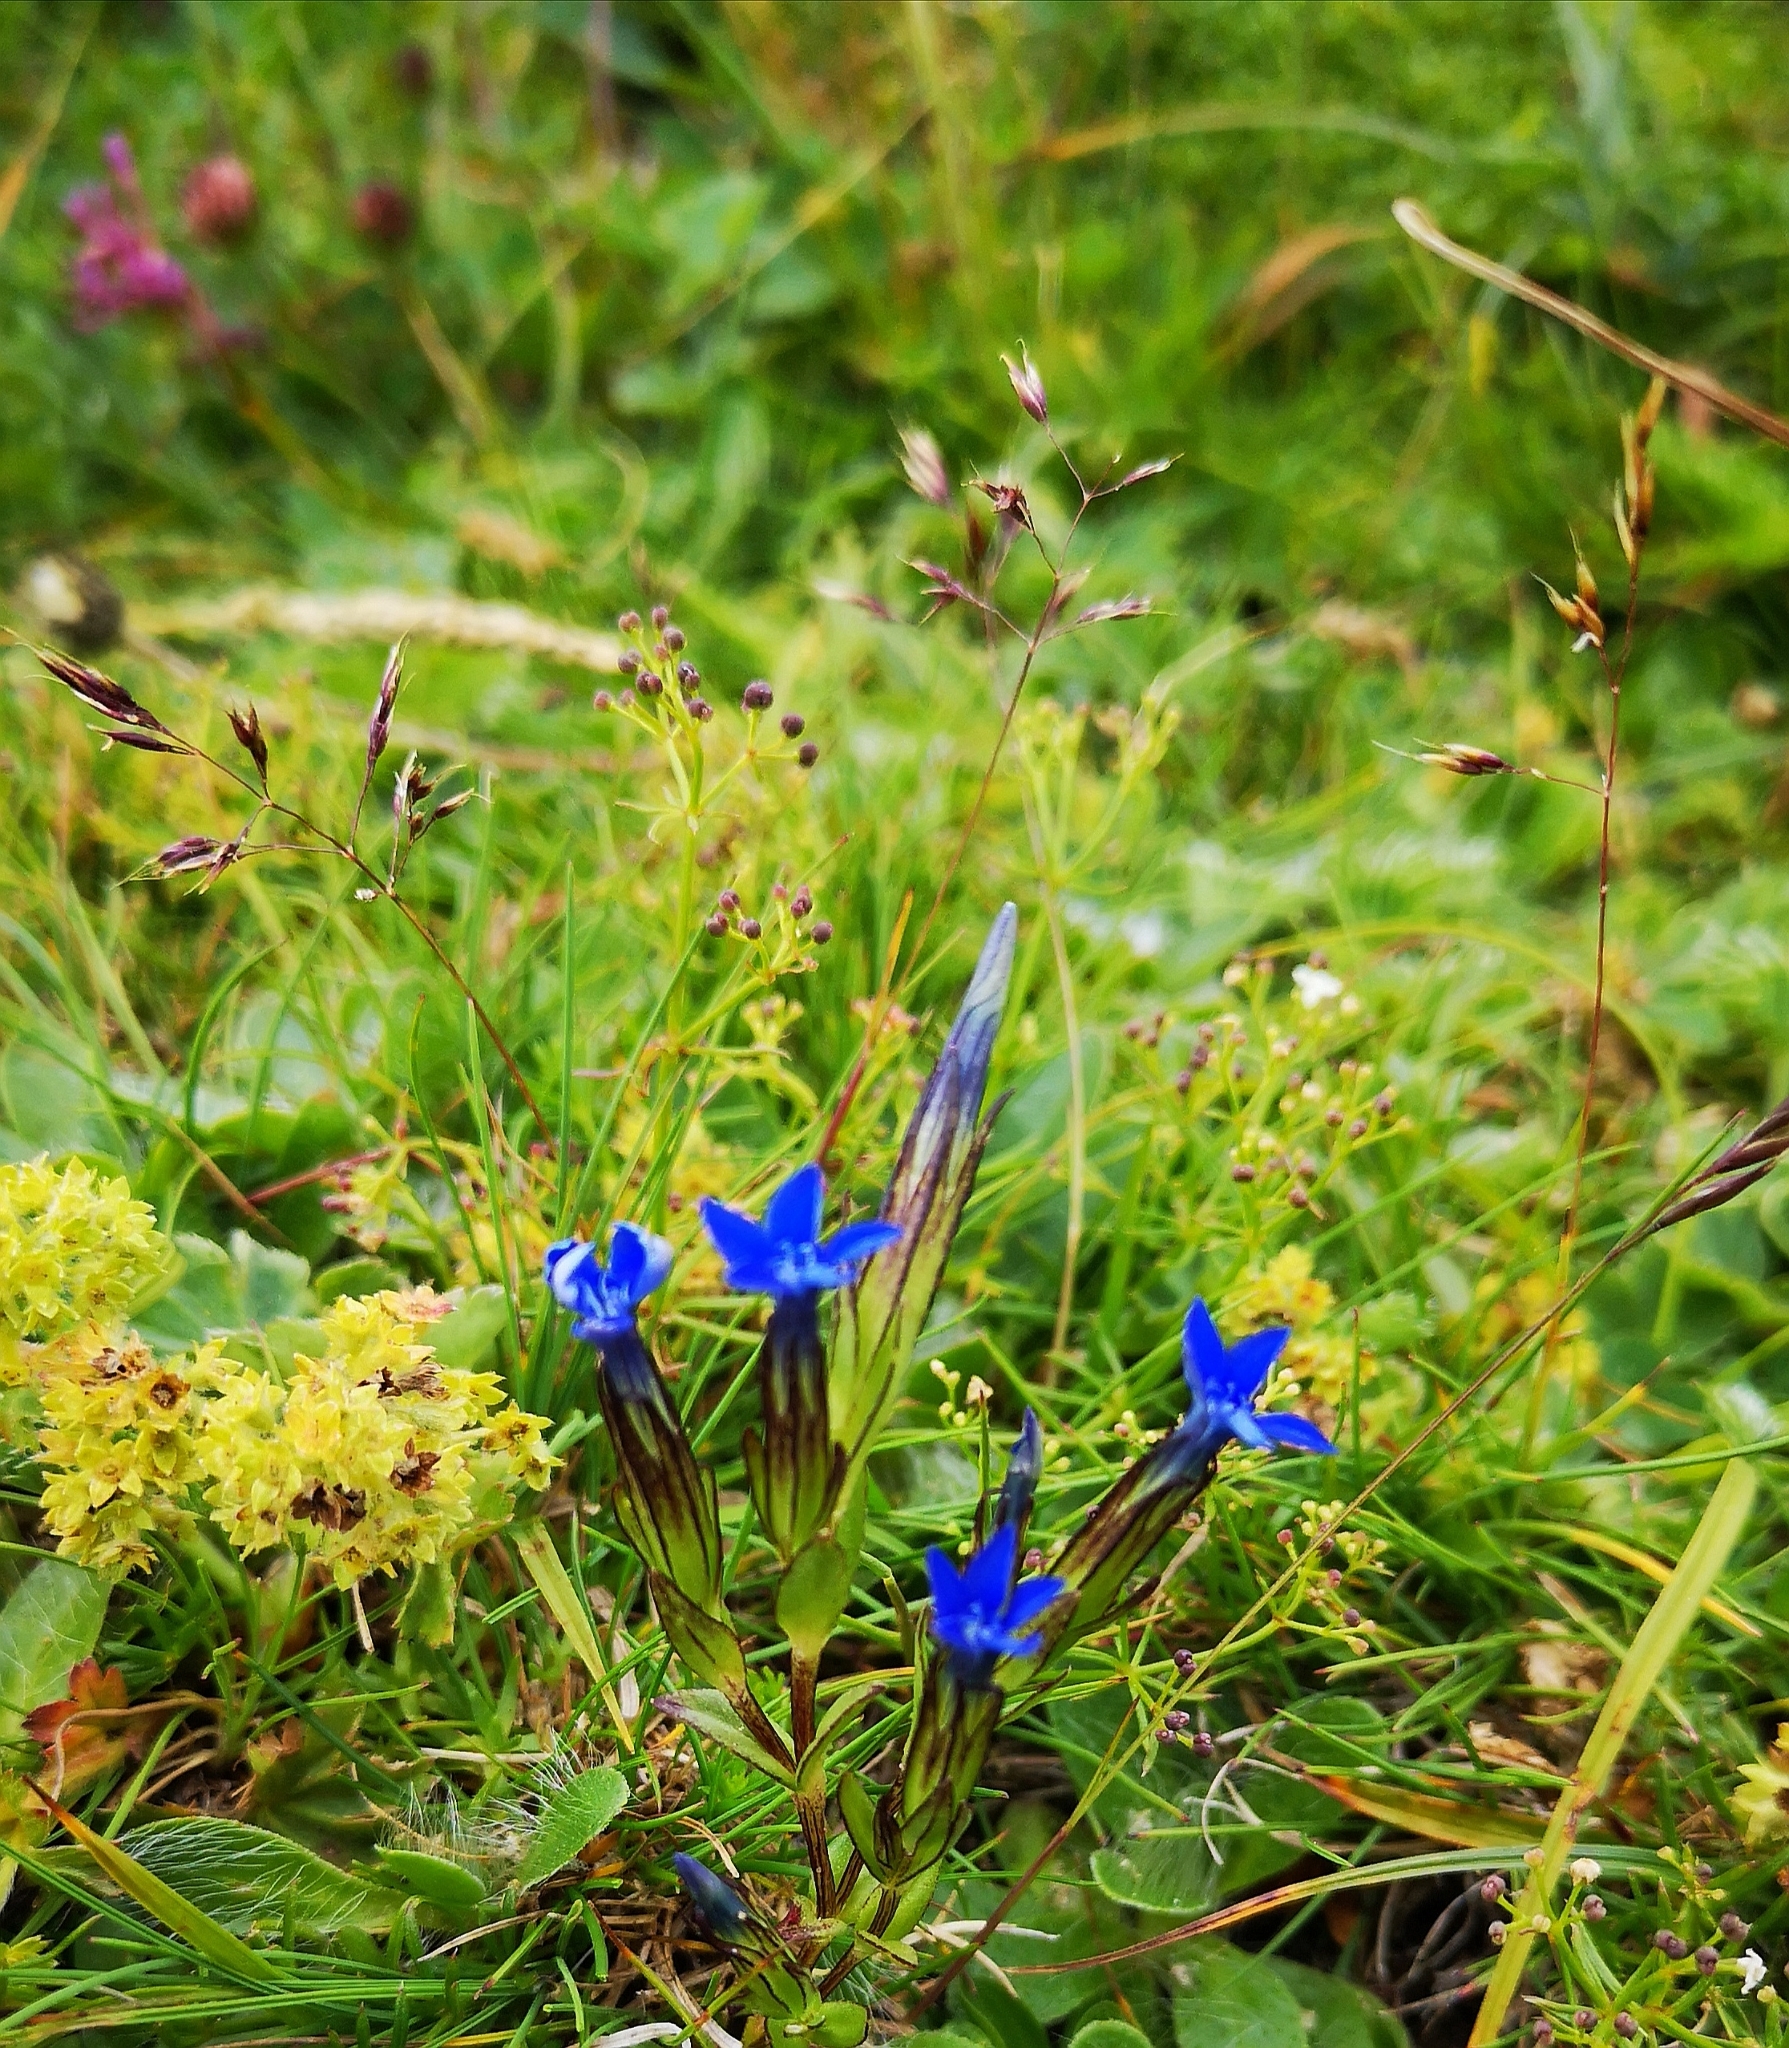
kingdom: Plantae
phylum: Tracheophyta
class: Magnoliopsida
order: Gentianales
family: Gentianaceae
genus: Gentiana
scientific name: Gentiana nivalis
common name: Alpine gentian
